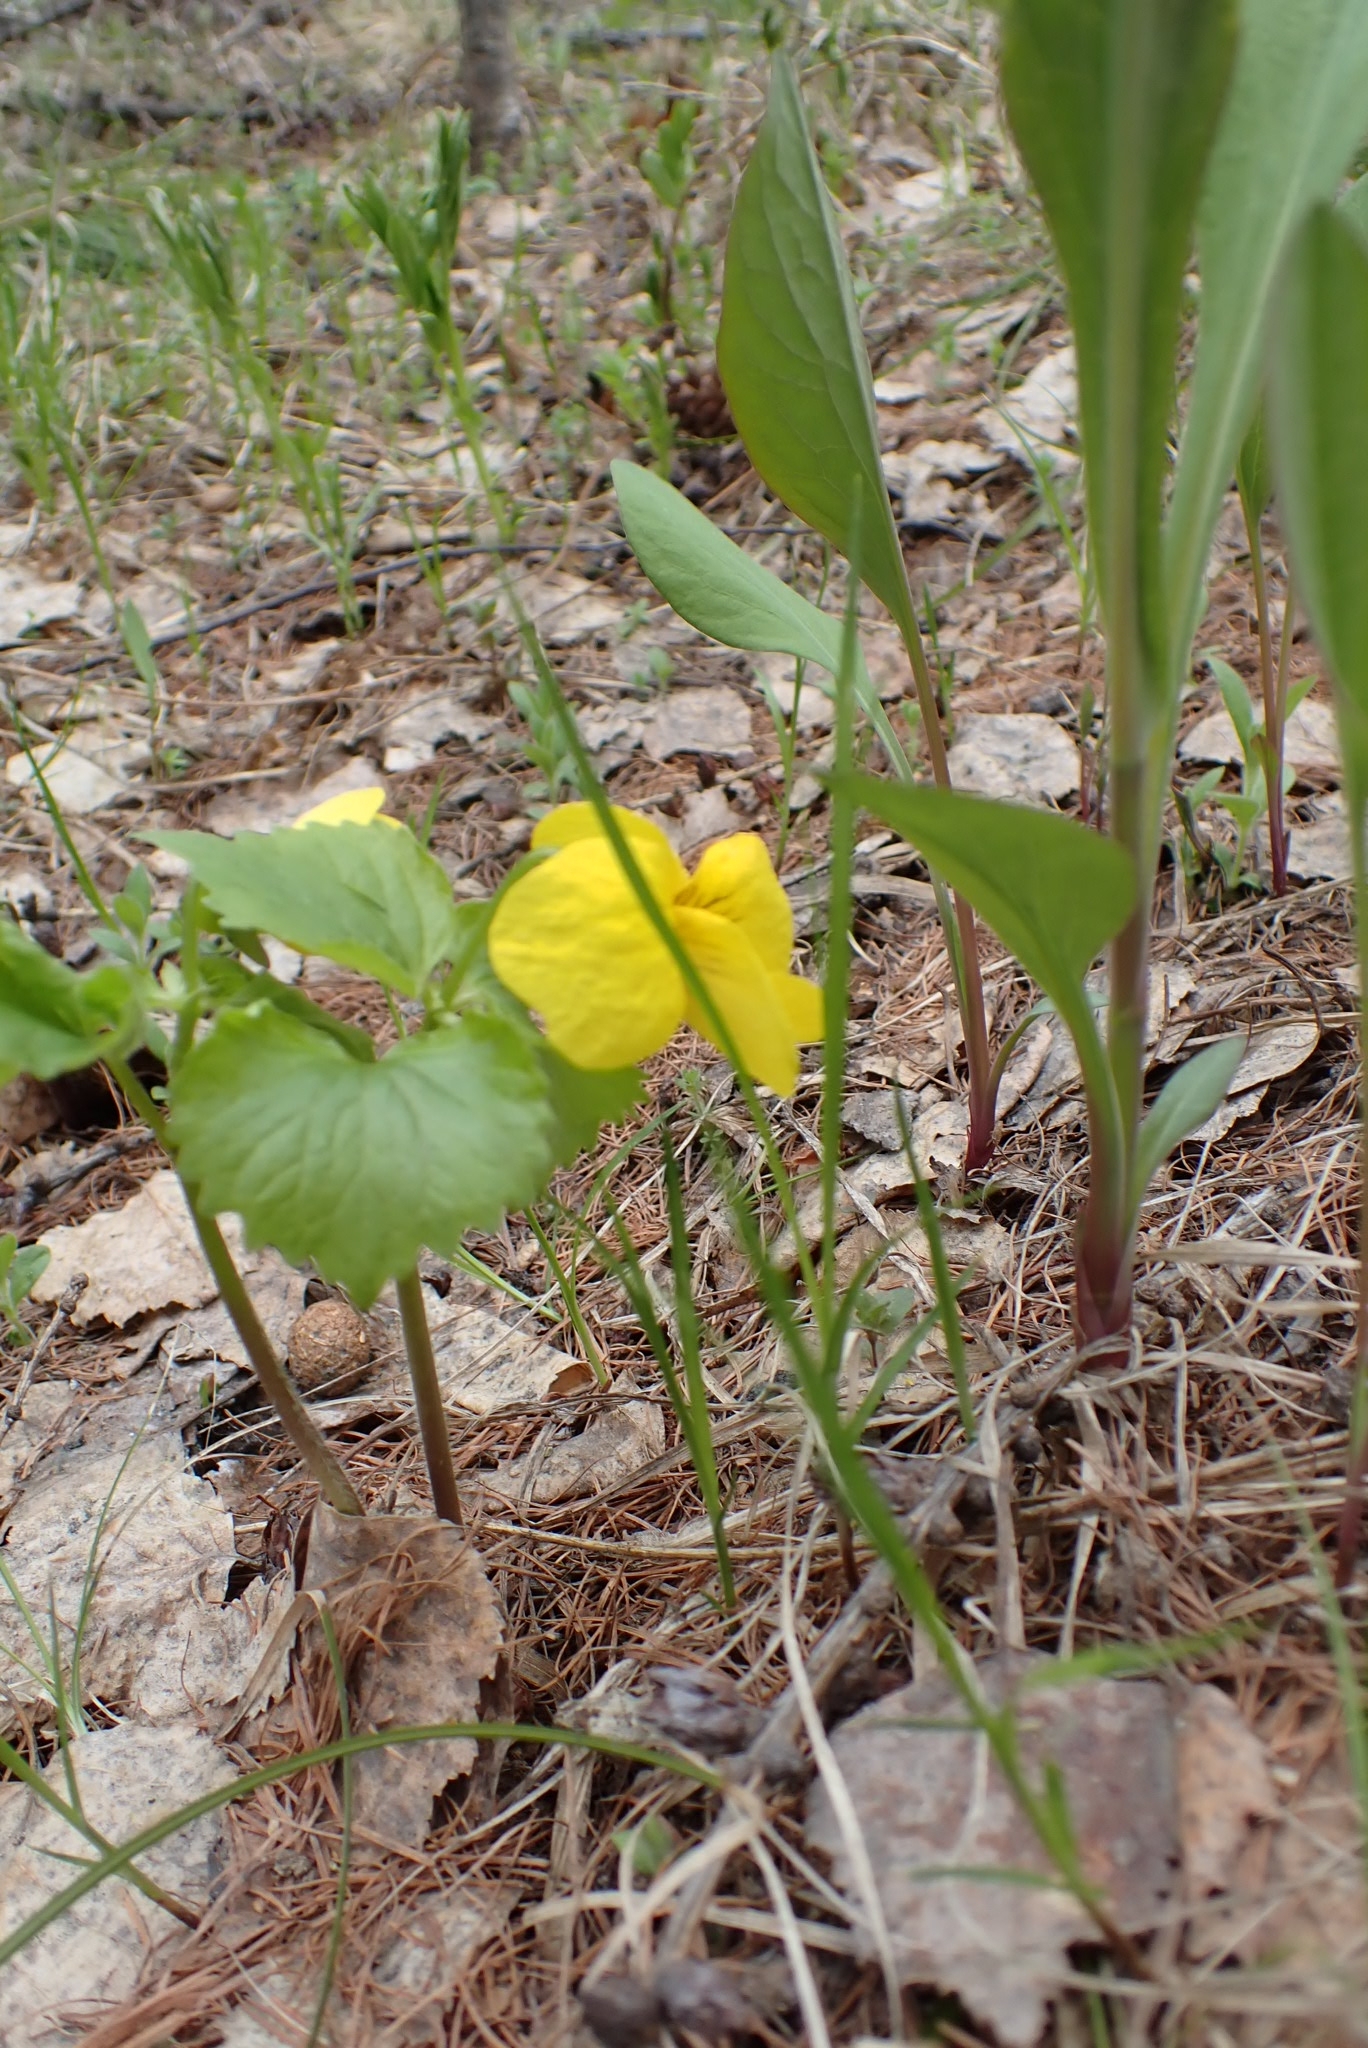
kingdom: Plantae
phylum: Tracheophyta
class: Magnoliopsida
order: Malpighiales
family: Violaceae
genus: Viola
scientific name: Viola uniflora
